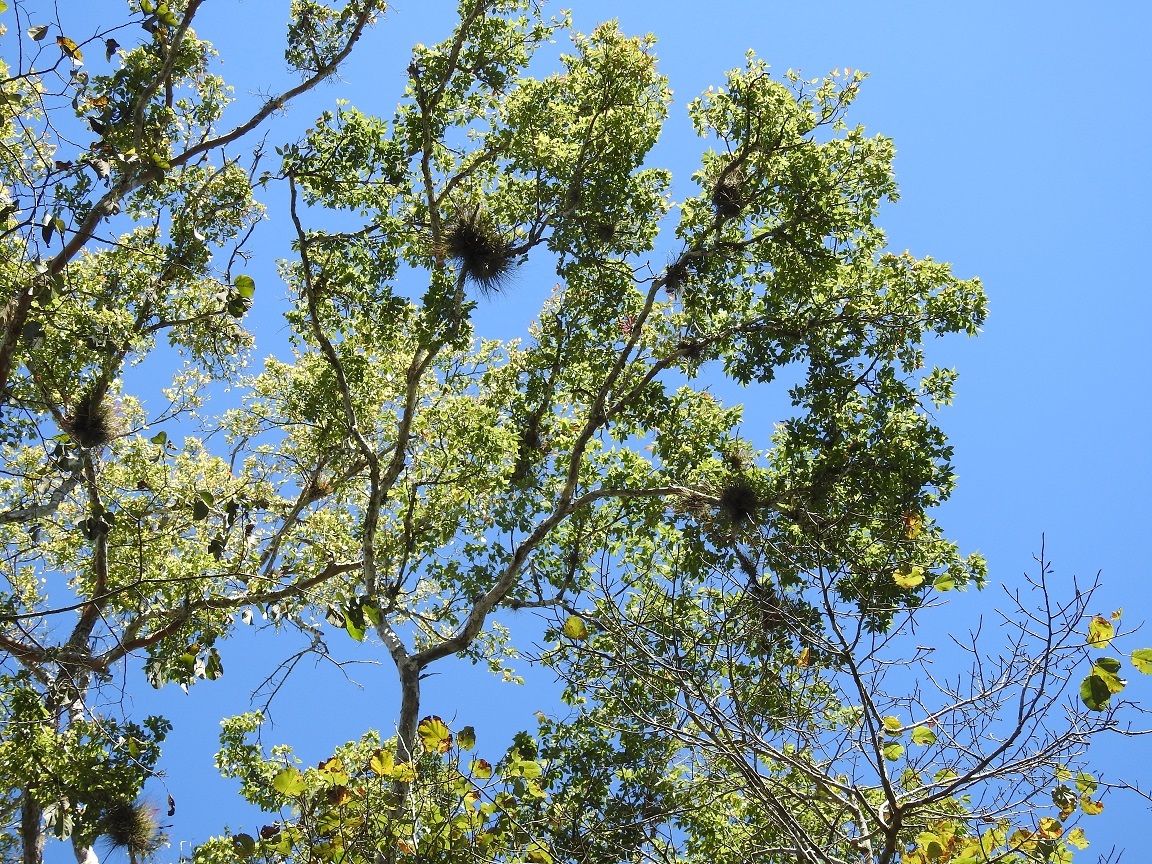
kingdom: Plantae
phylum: Tracheophyta
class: Magnoliopsida
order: Rosales
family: Ulmaceae
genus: Ulmus
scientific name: Ulmus ismaelis
